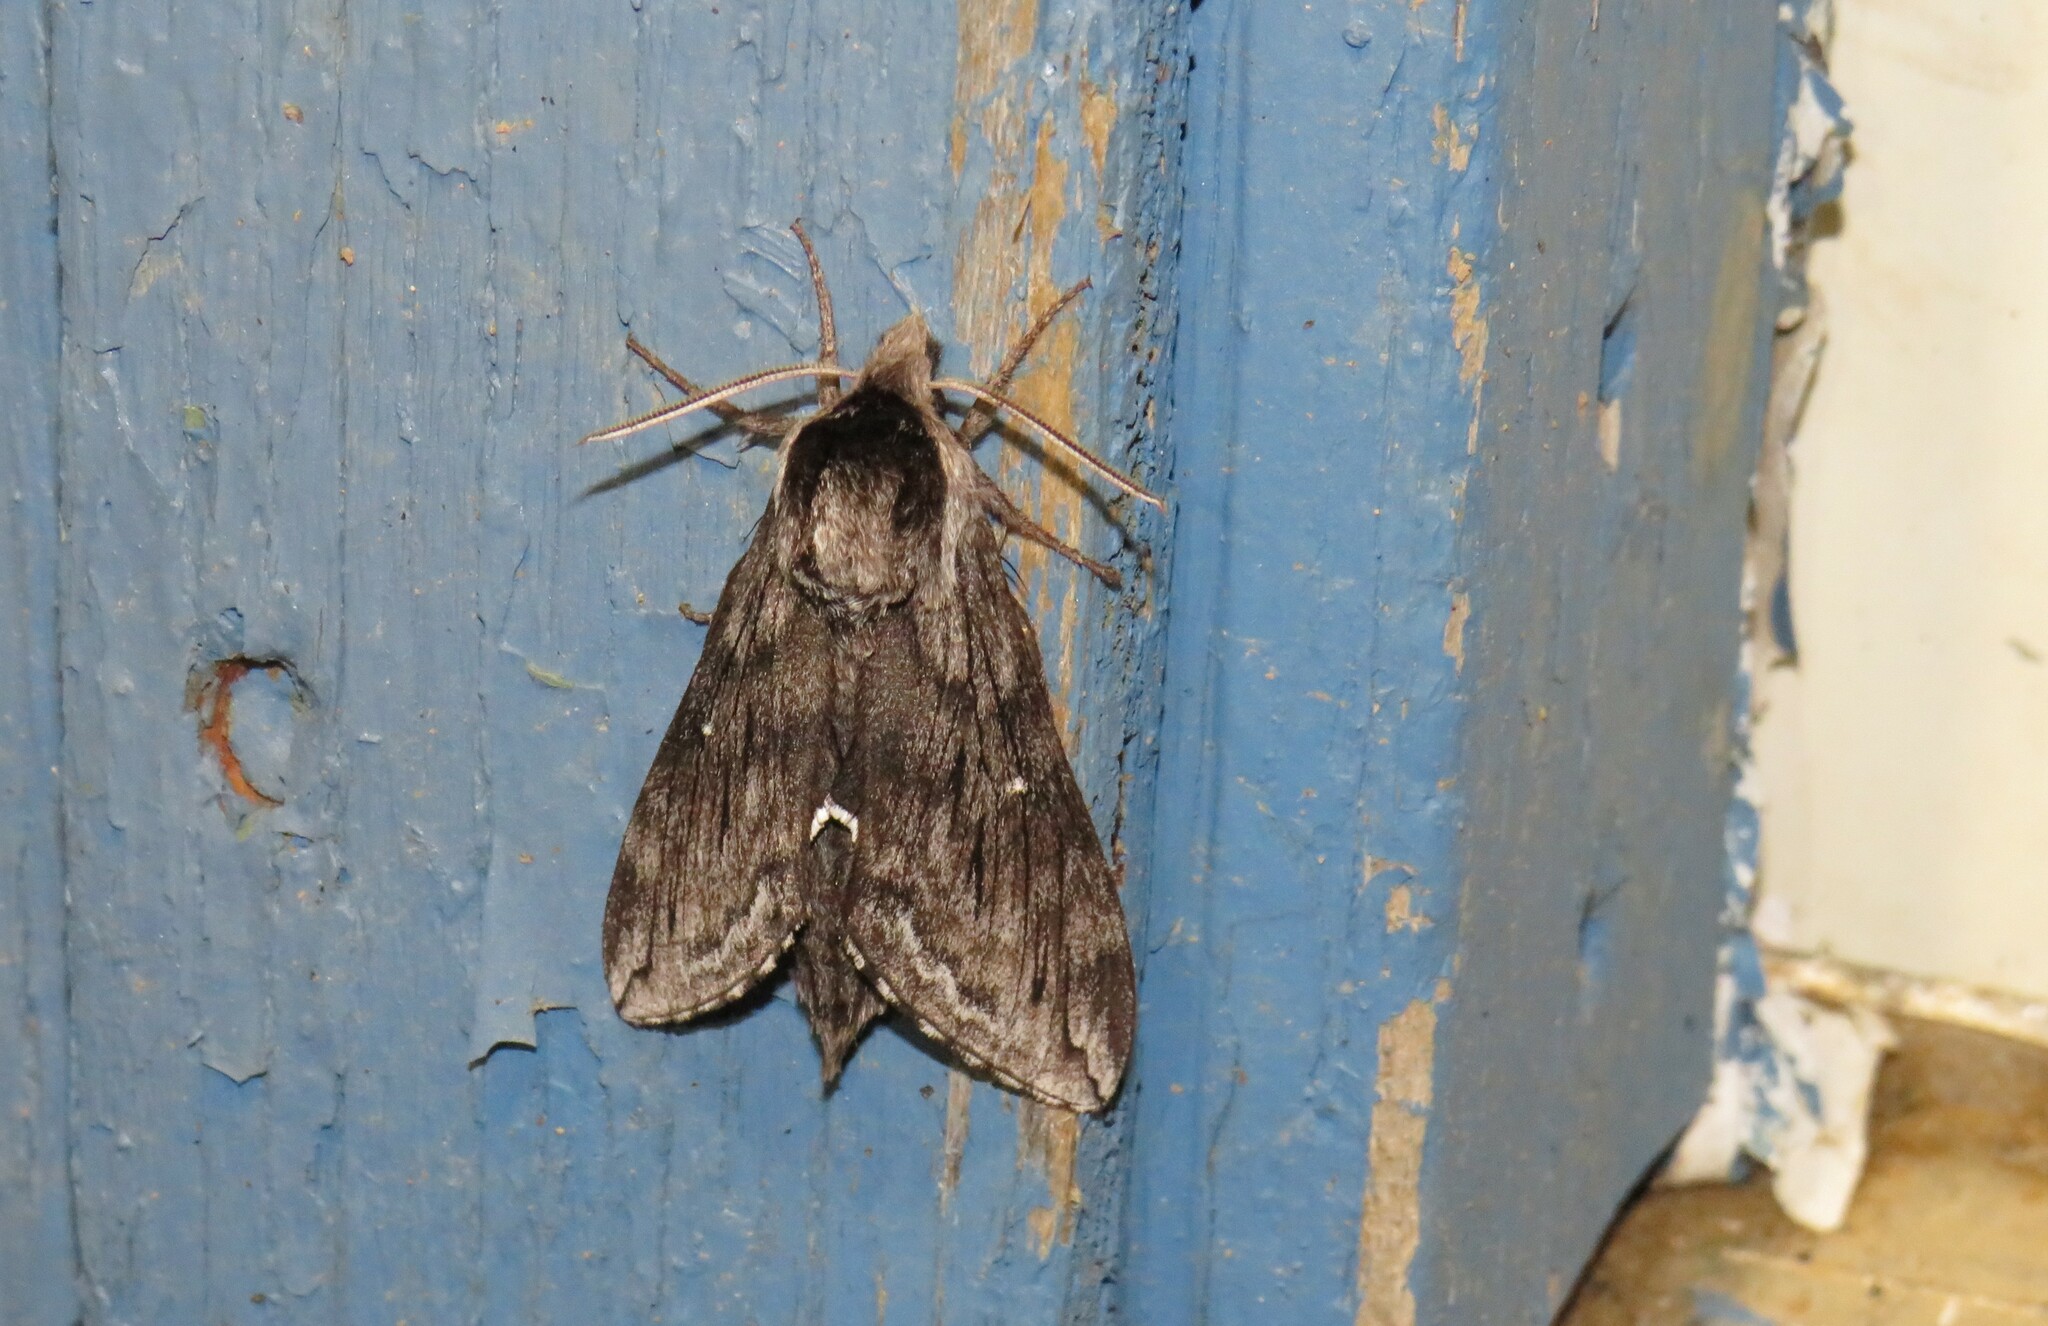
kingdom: Animalia
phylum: Arthropoda
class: Insecta
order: Lepidoptera
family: Sphingidae
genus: Sphinx
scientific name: Sphinx poecila
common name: Northern apple sphinx
